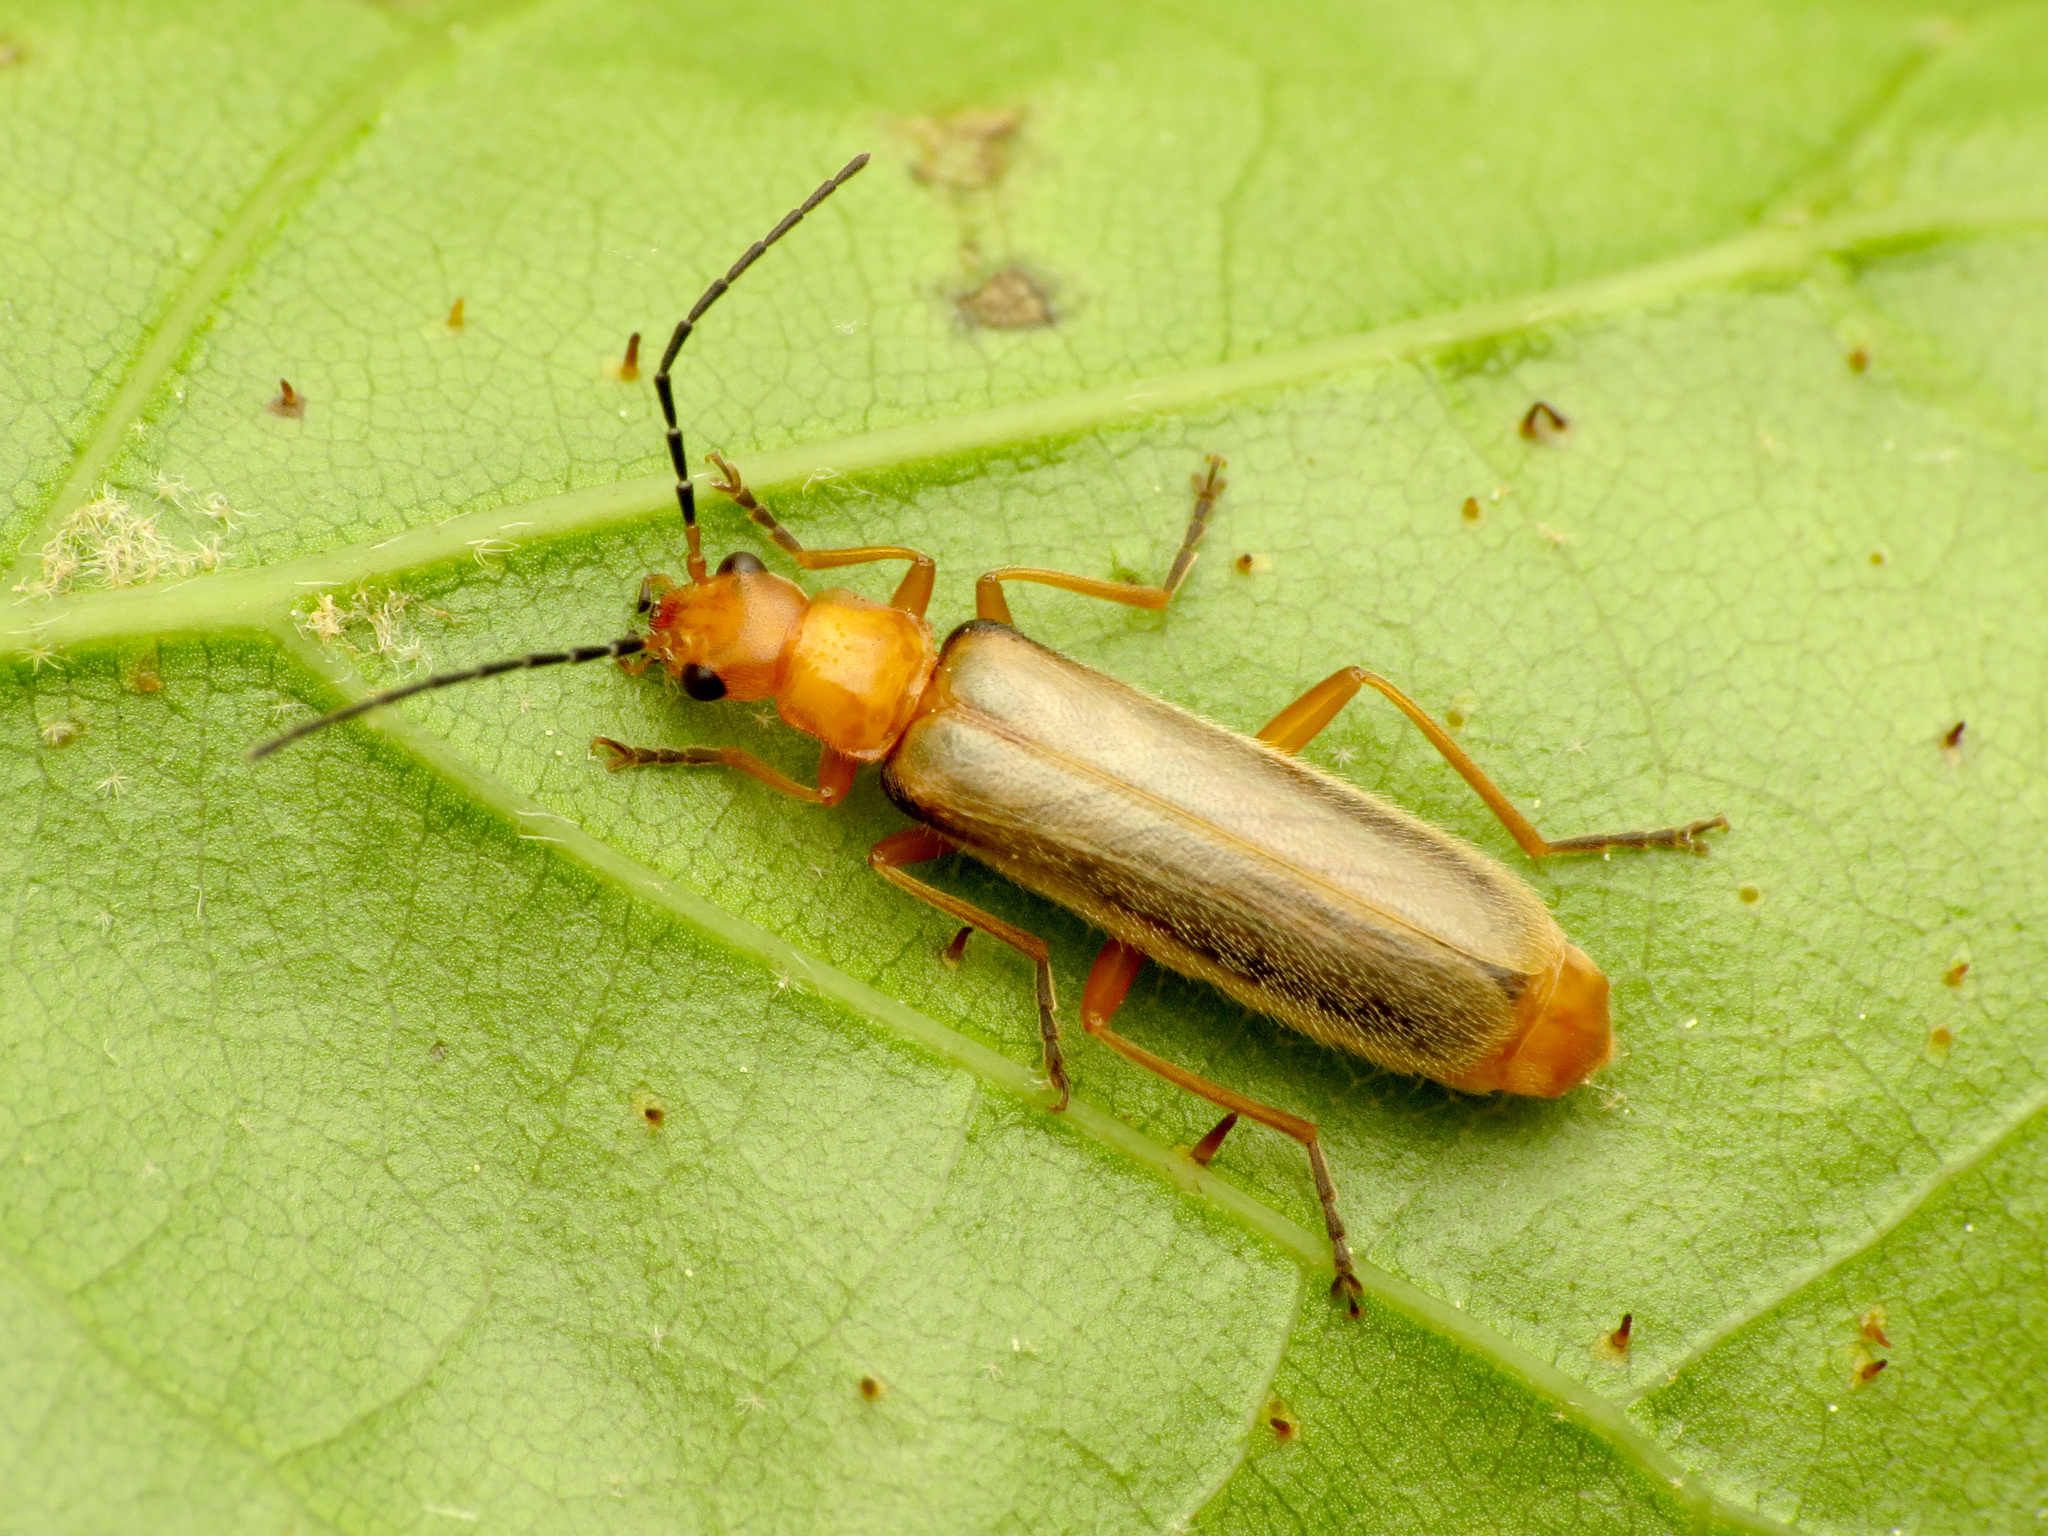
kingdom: Animalia
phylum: Arthropoda
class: Insecta
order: Coleoptera
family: Cantharidae
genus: Rhagonycha
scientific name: Rhagonycha nigrohumeralis
